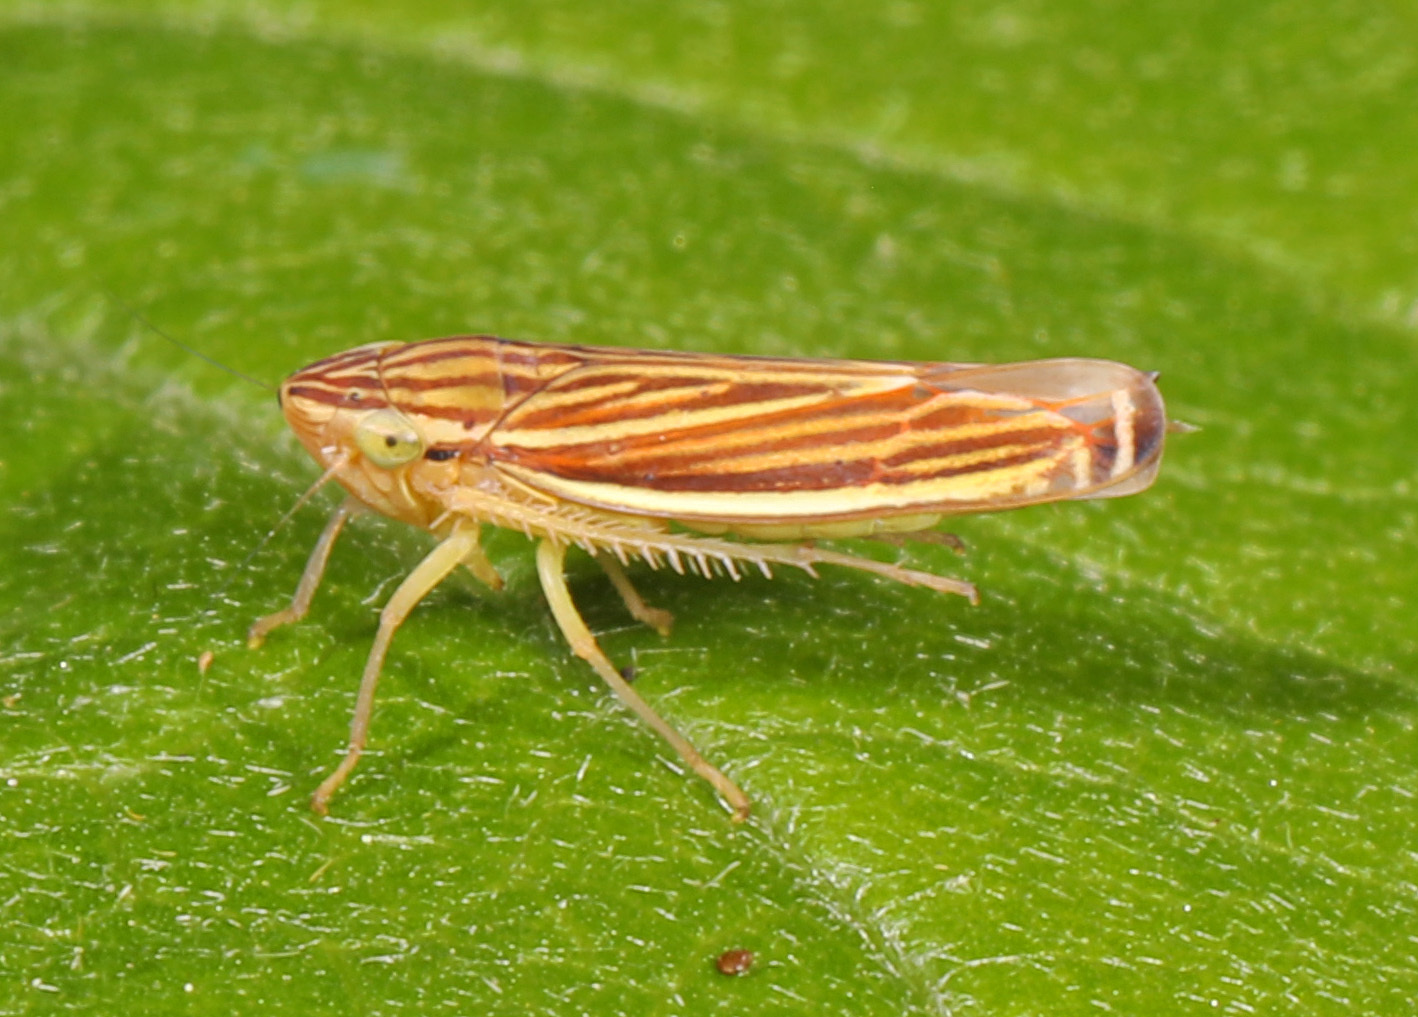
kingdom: Animalia
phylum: Arthropoda
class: Insecta
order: Hemiptera
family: Cicadellidae
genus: Sibovia
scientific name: Sibovia occatoria
